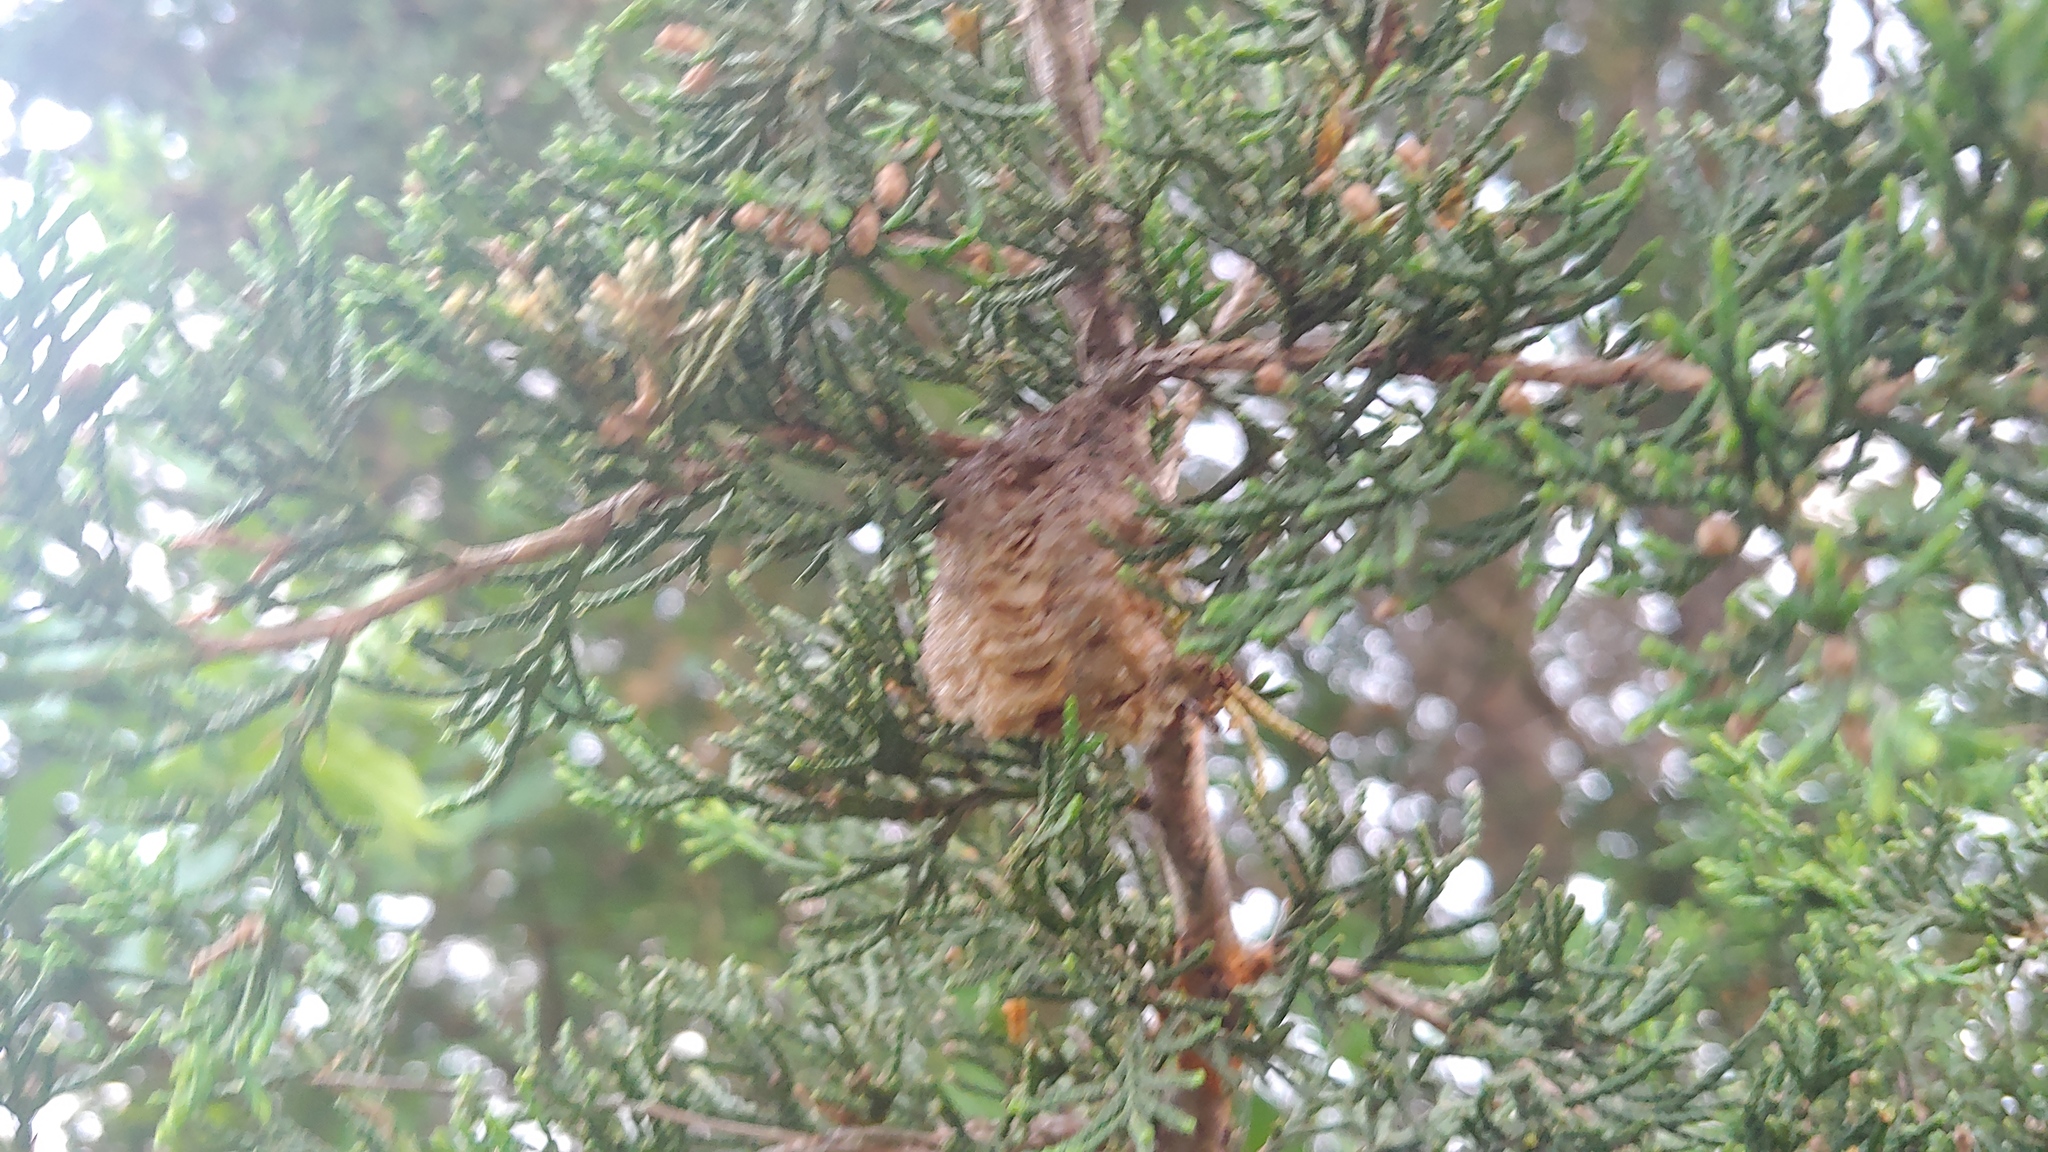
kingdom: Animalia
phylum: Arthropoda
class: Insecta
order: Mantodea
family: Mantidae
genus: Tenodera
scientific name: Tenodera sinensis
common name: Chinese mantis
